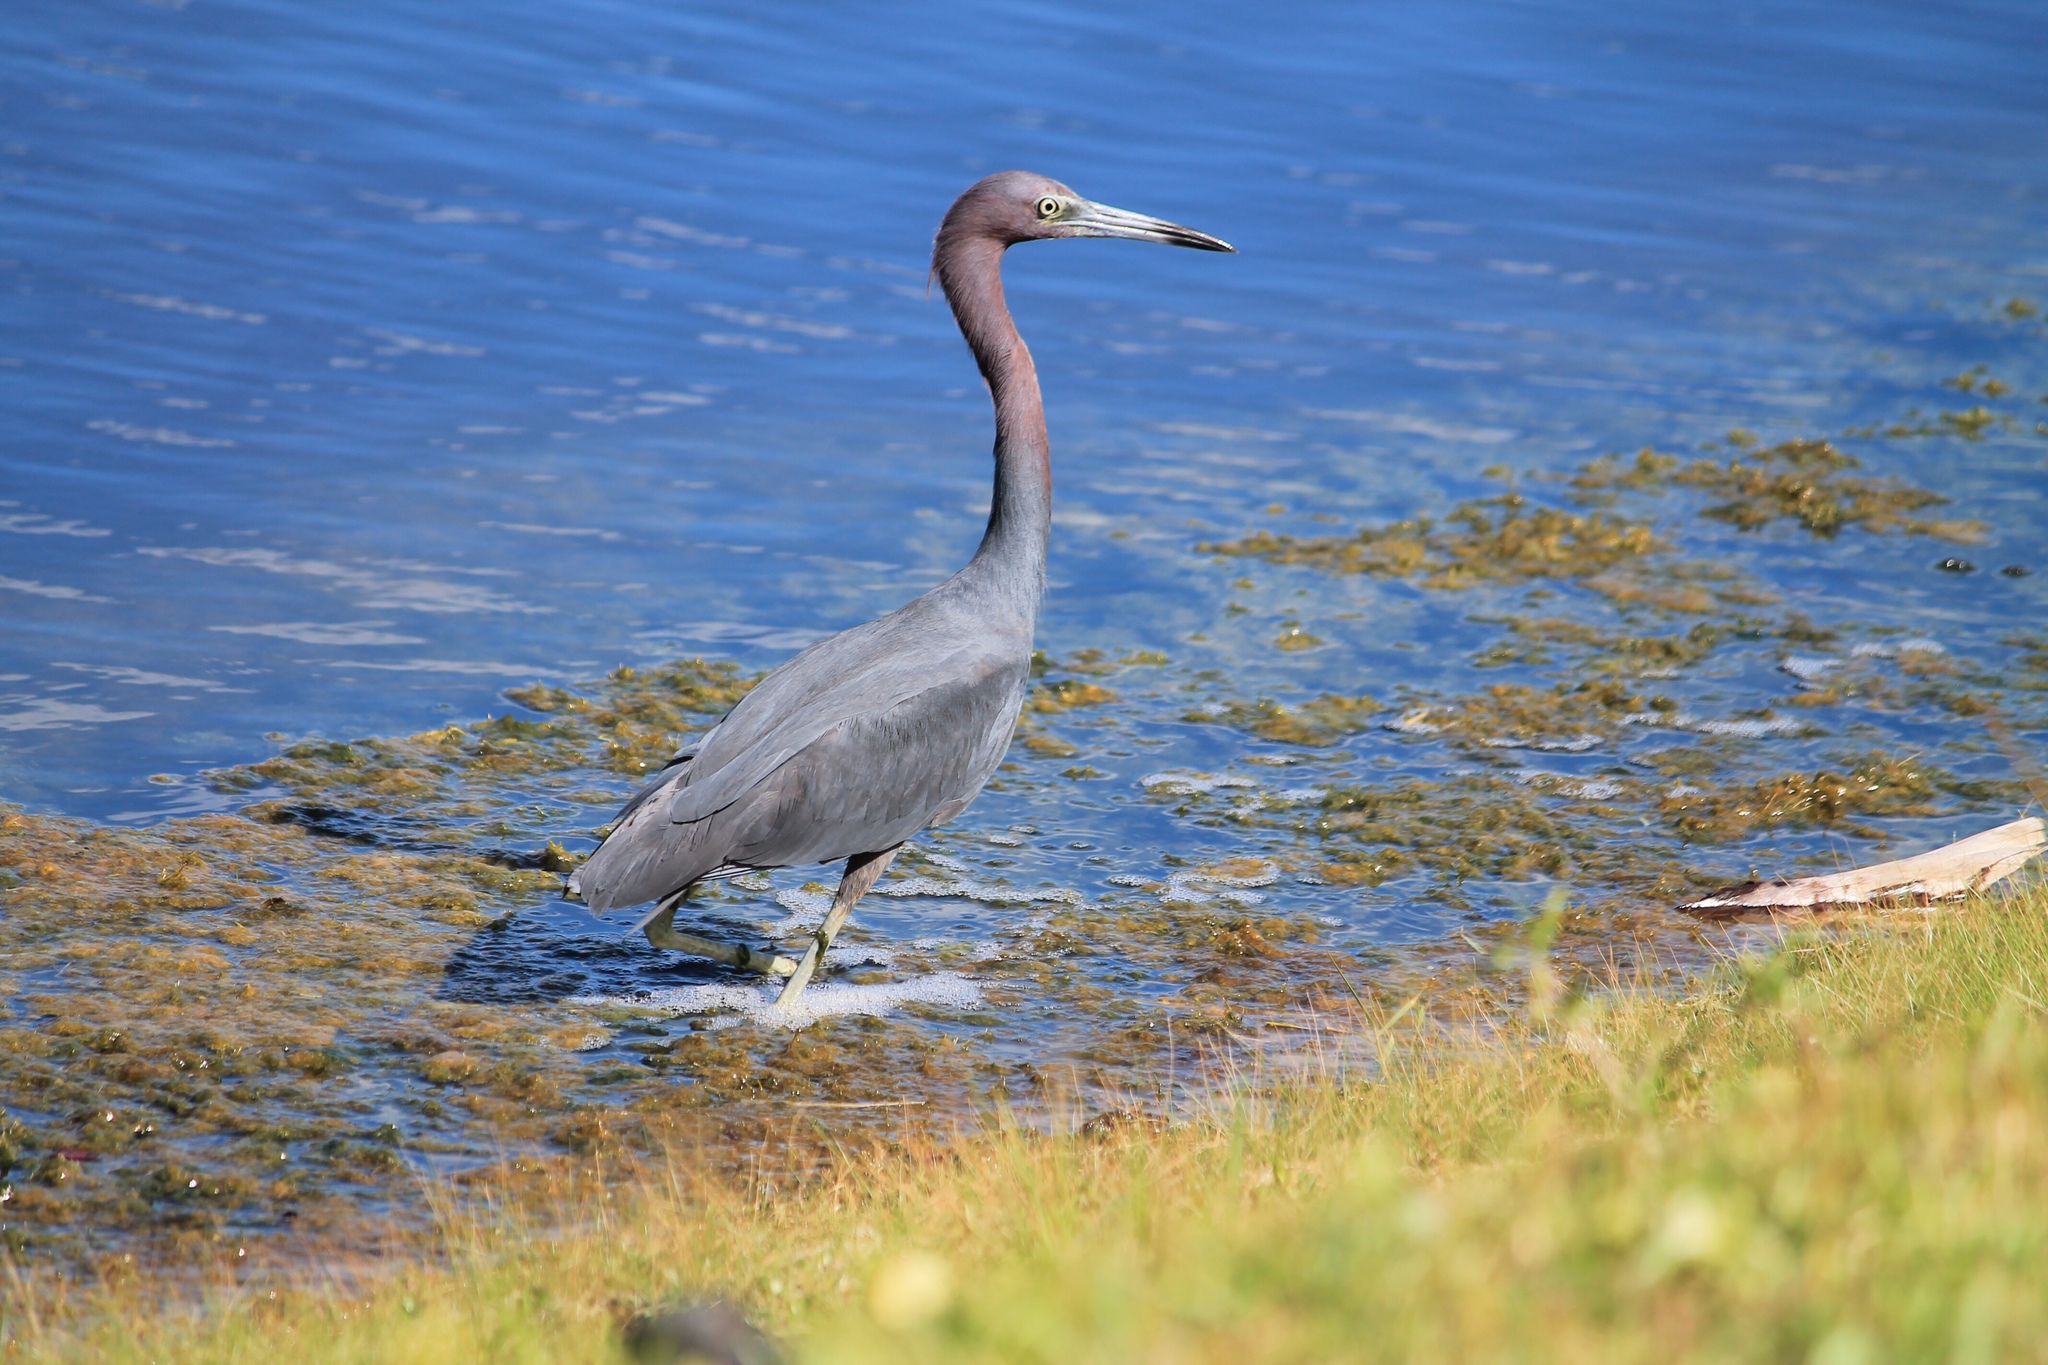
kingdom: Animalia
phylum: Chordata
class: Aves
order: Pelecaniformes
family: Ardeidae
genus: Egretta
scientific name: Egretta caerulea
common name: Little blue heron
